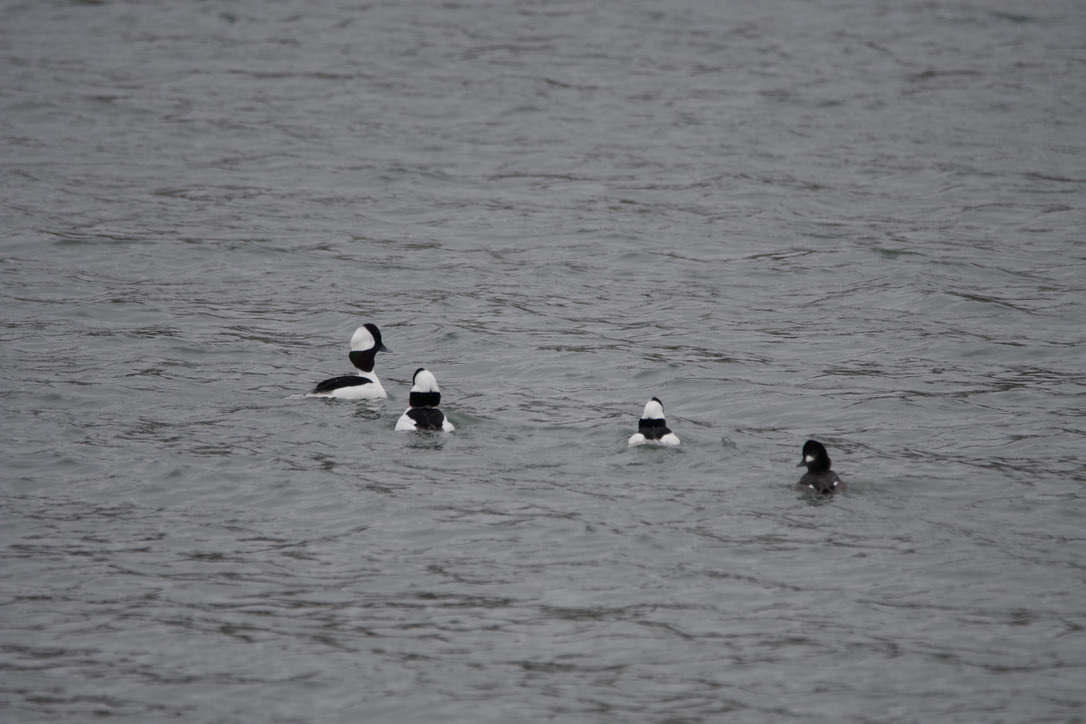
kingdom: Animalia
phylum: Chordata
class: Aves
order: Anseriformes
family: Anatidae
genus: Bucephala
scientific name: Bucephala albeola
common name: Bufflehead
